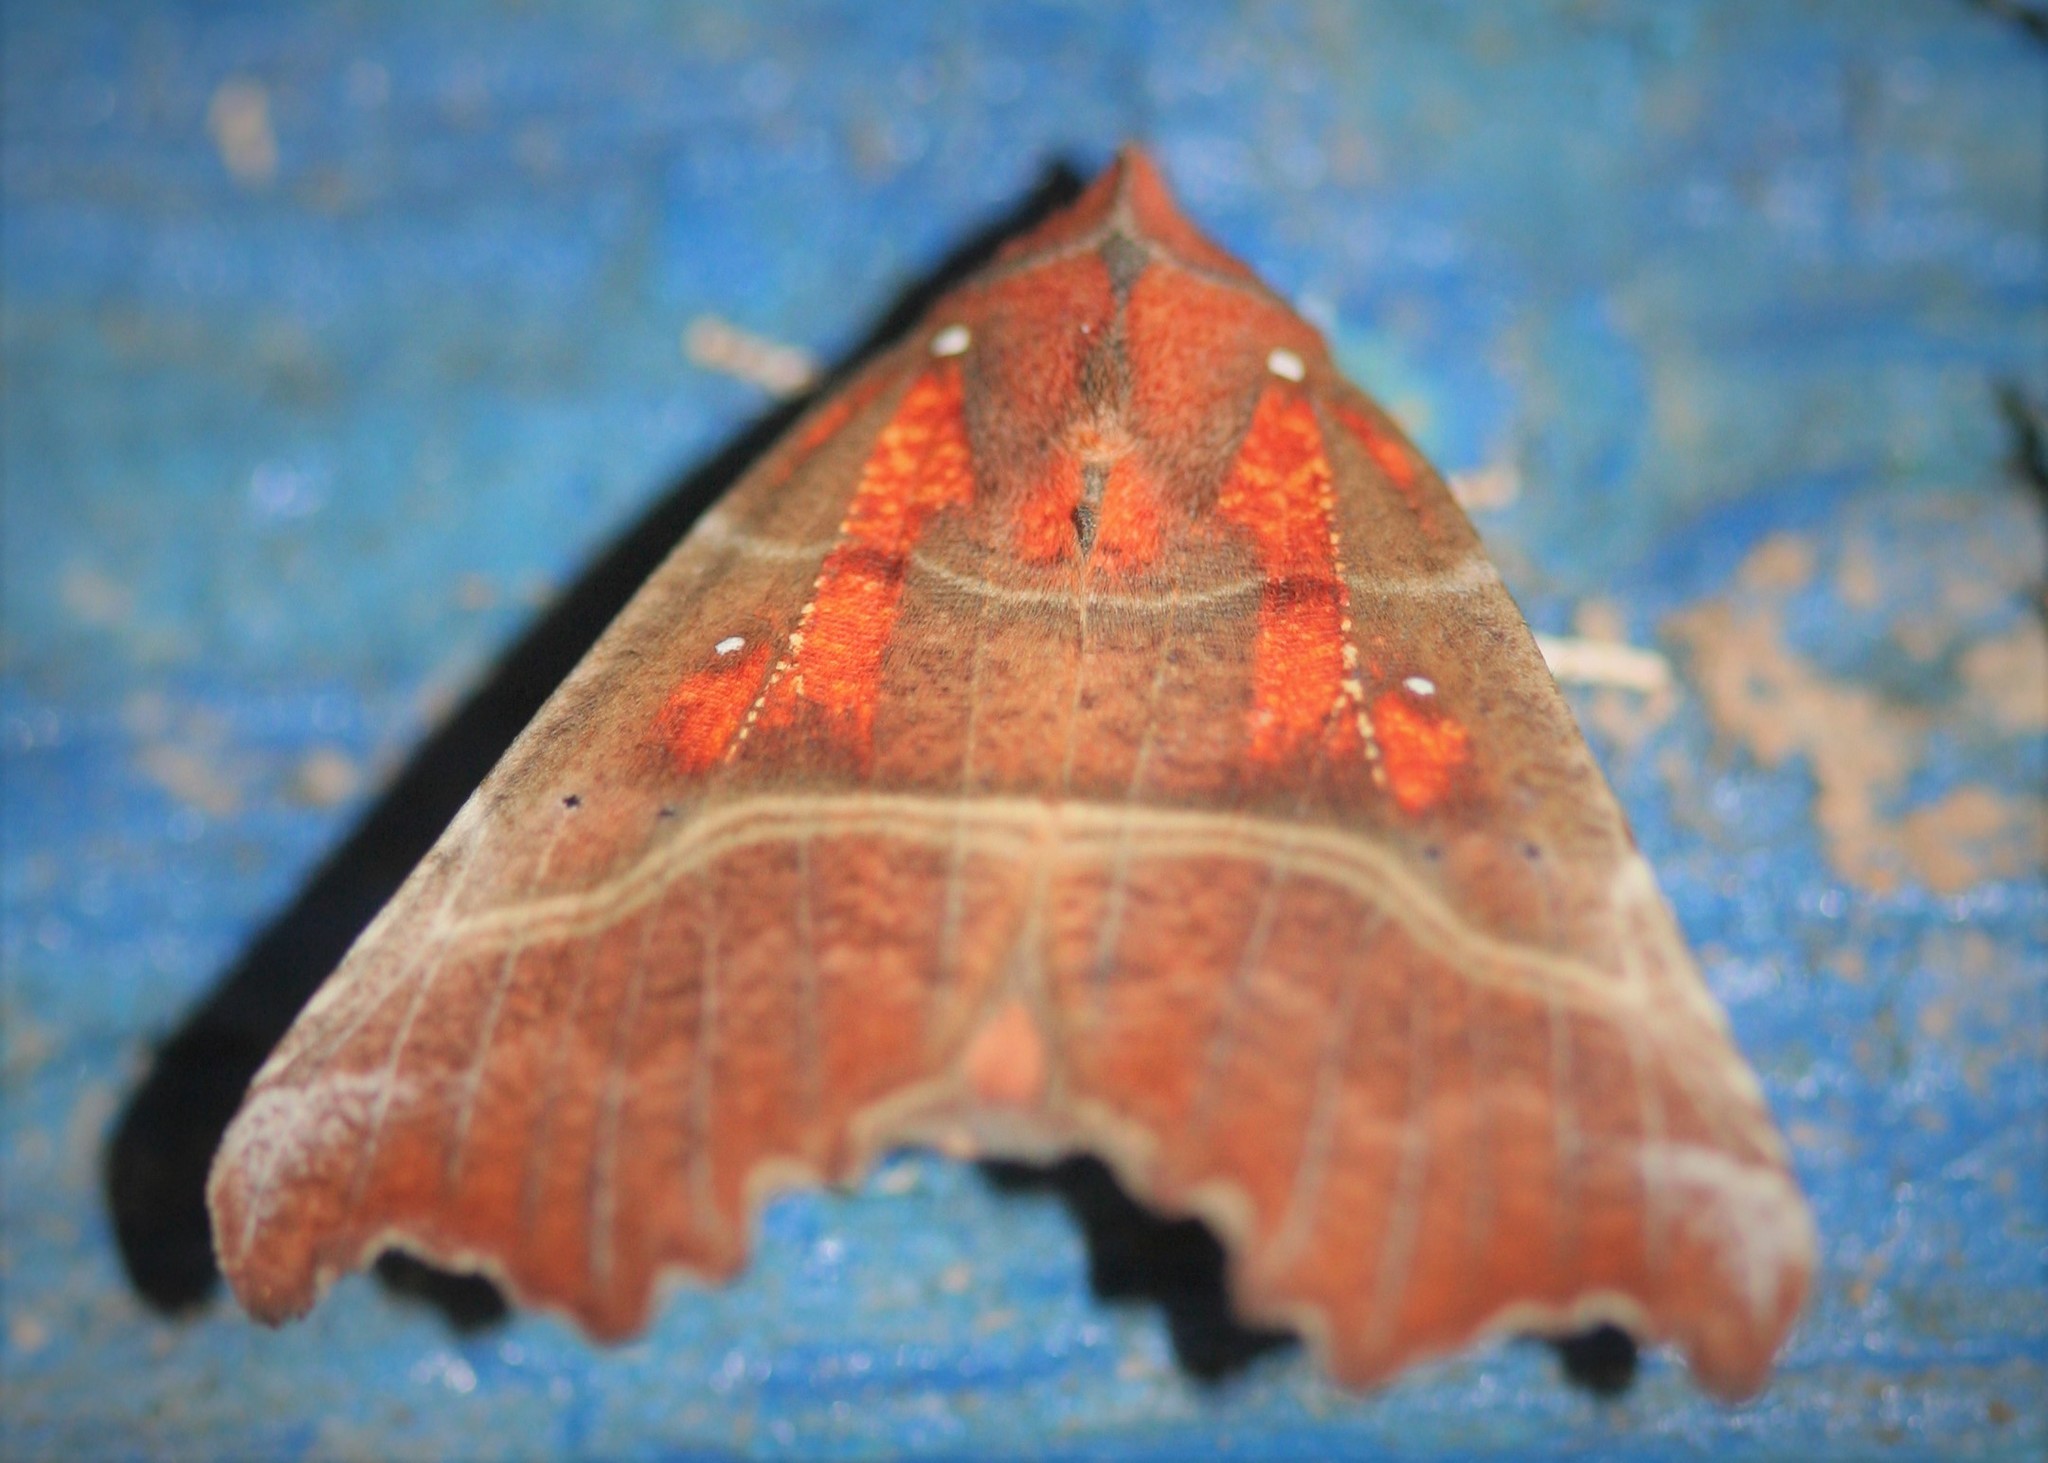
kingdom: Animalia
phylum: Arthropoda
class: Insecta
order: Lepidoptera
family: Erebidae
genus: Scoliopteryx
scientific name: Scoliopteryx libatrix
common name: Herald
